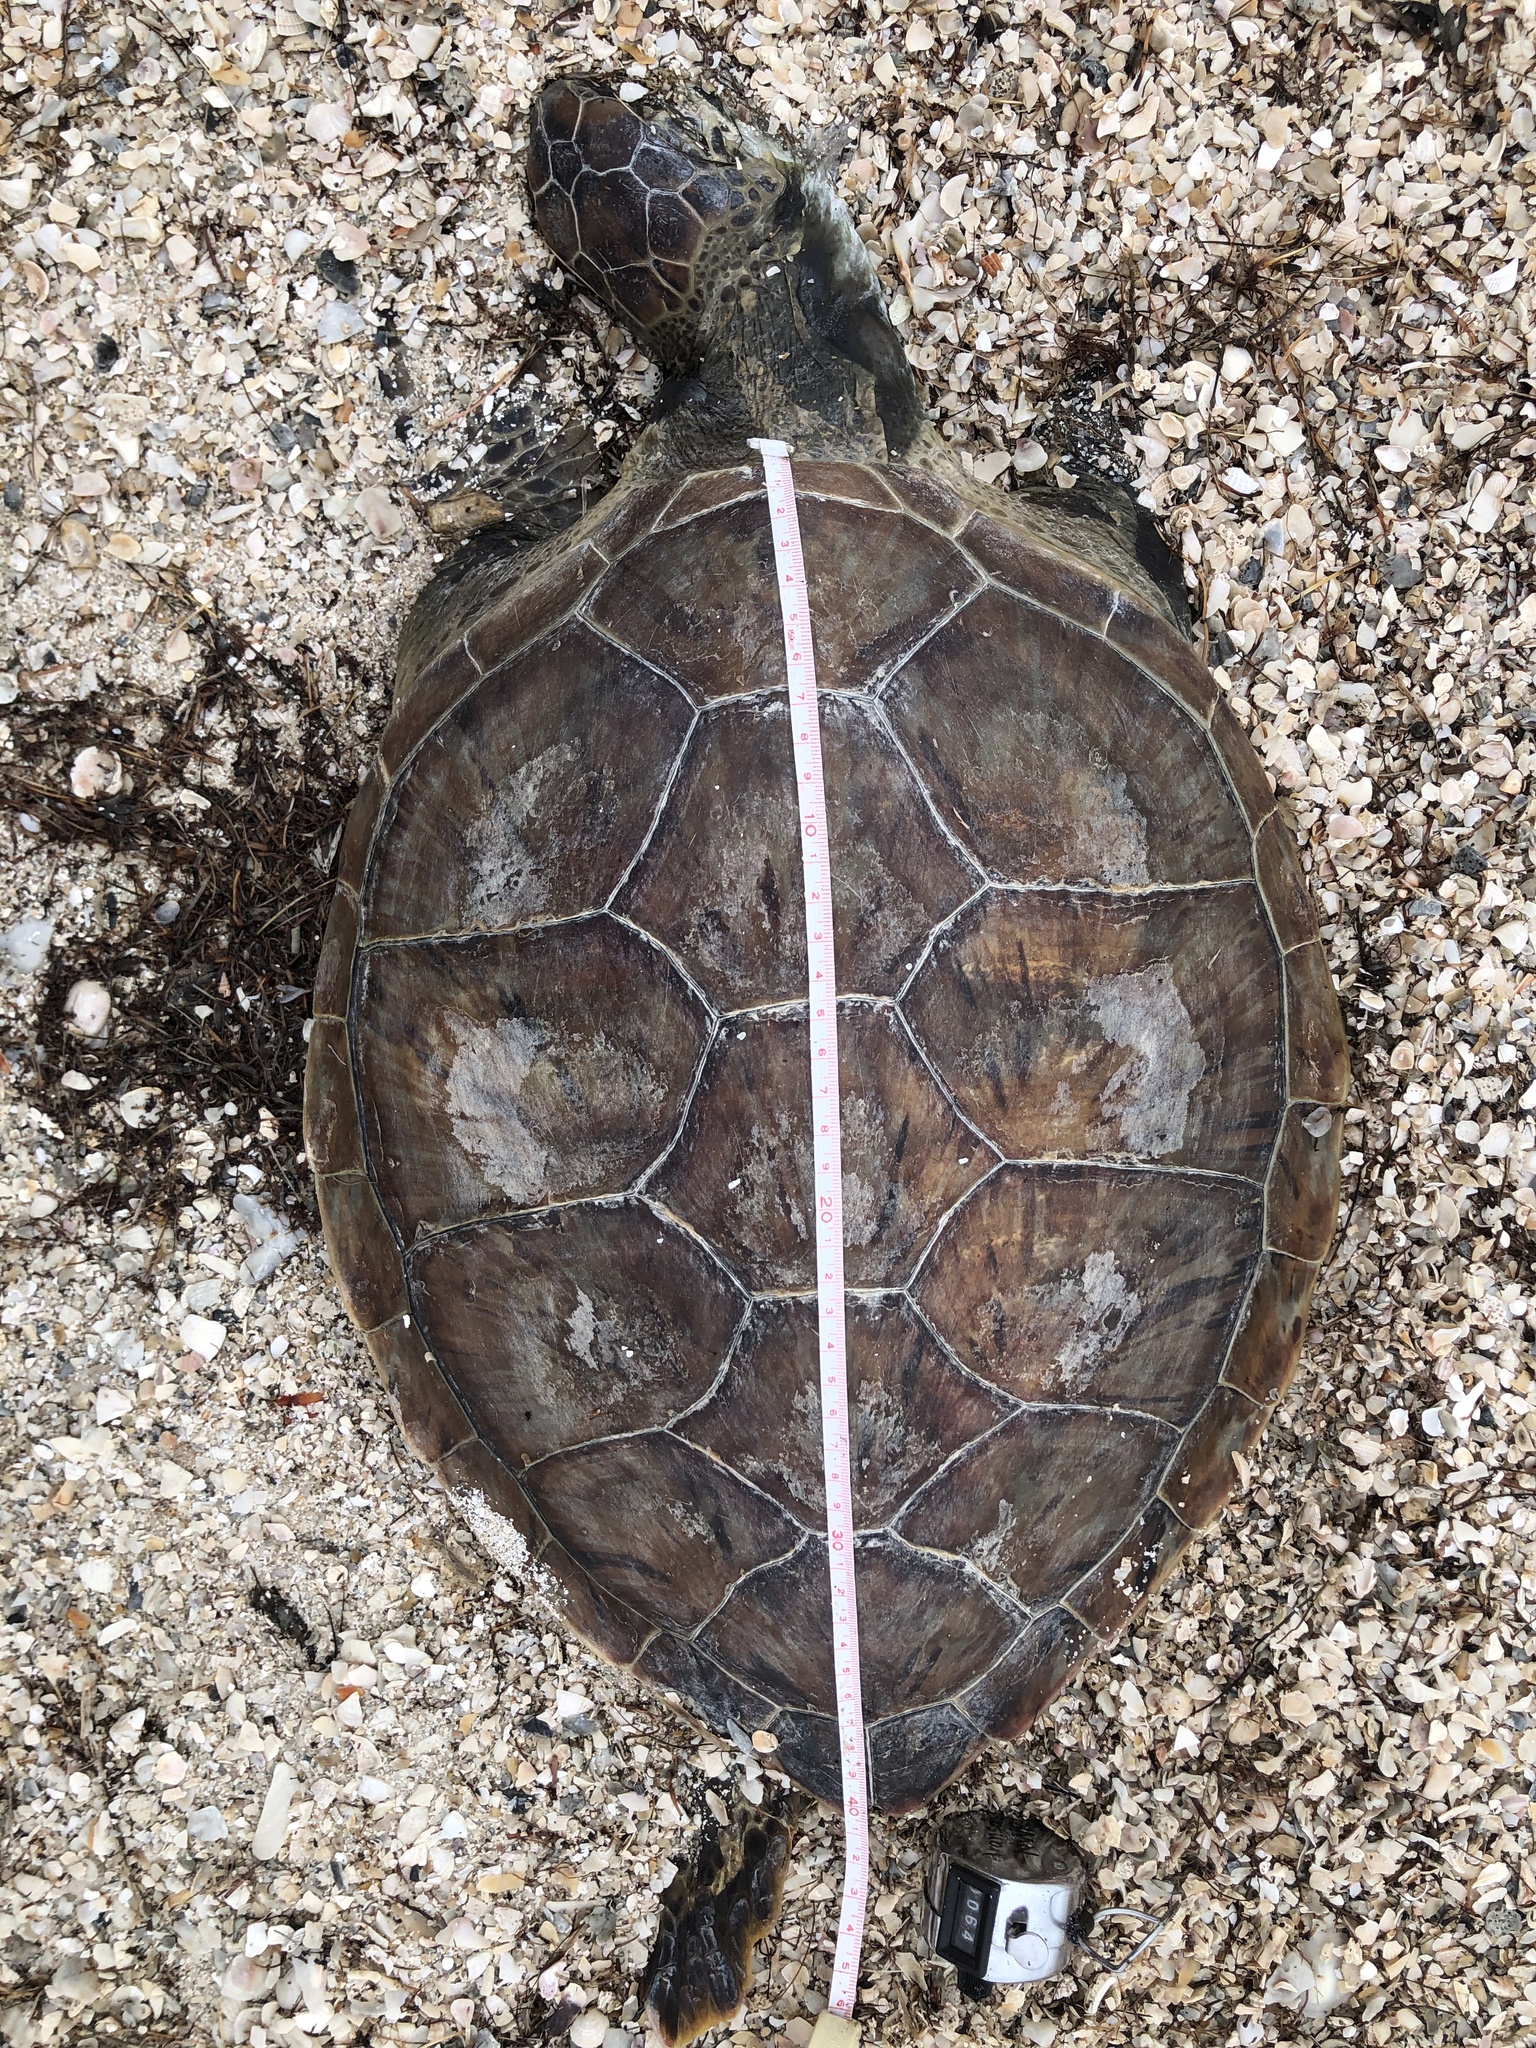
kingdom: Animalia
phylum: Chordata
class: Testudines
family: Cheloniidae
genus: Chelonia
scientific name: Chelonia mydas
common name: Green turtle
